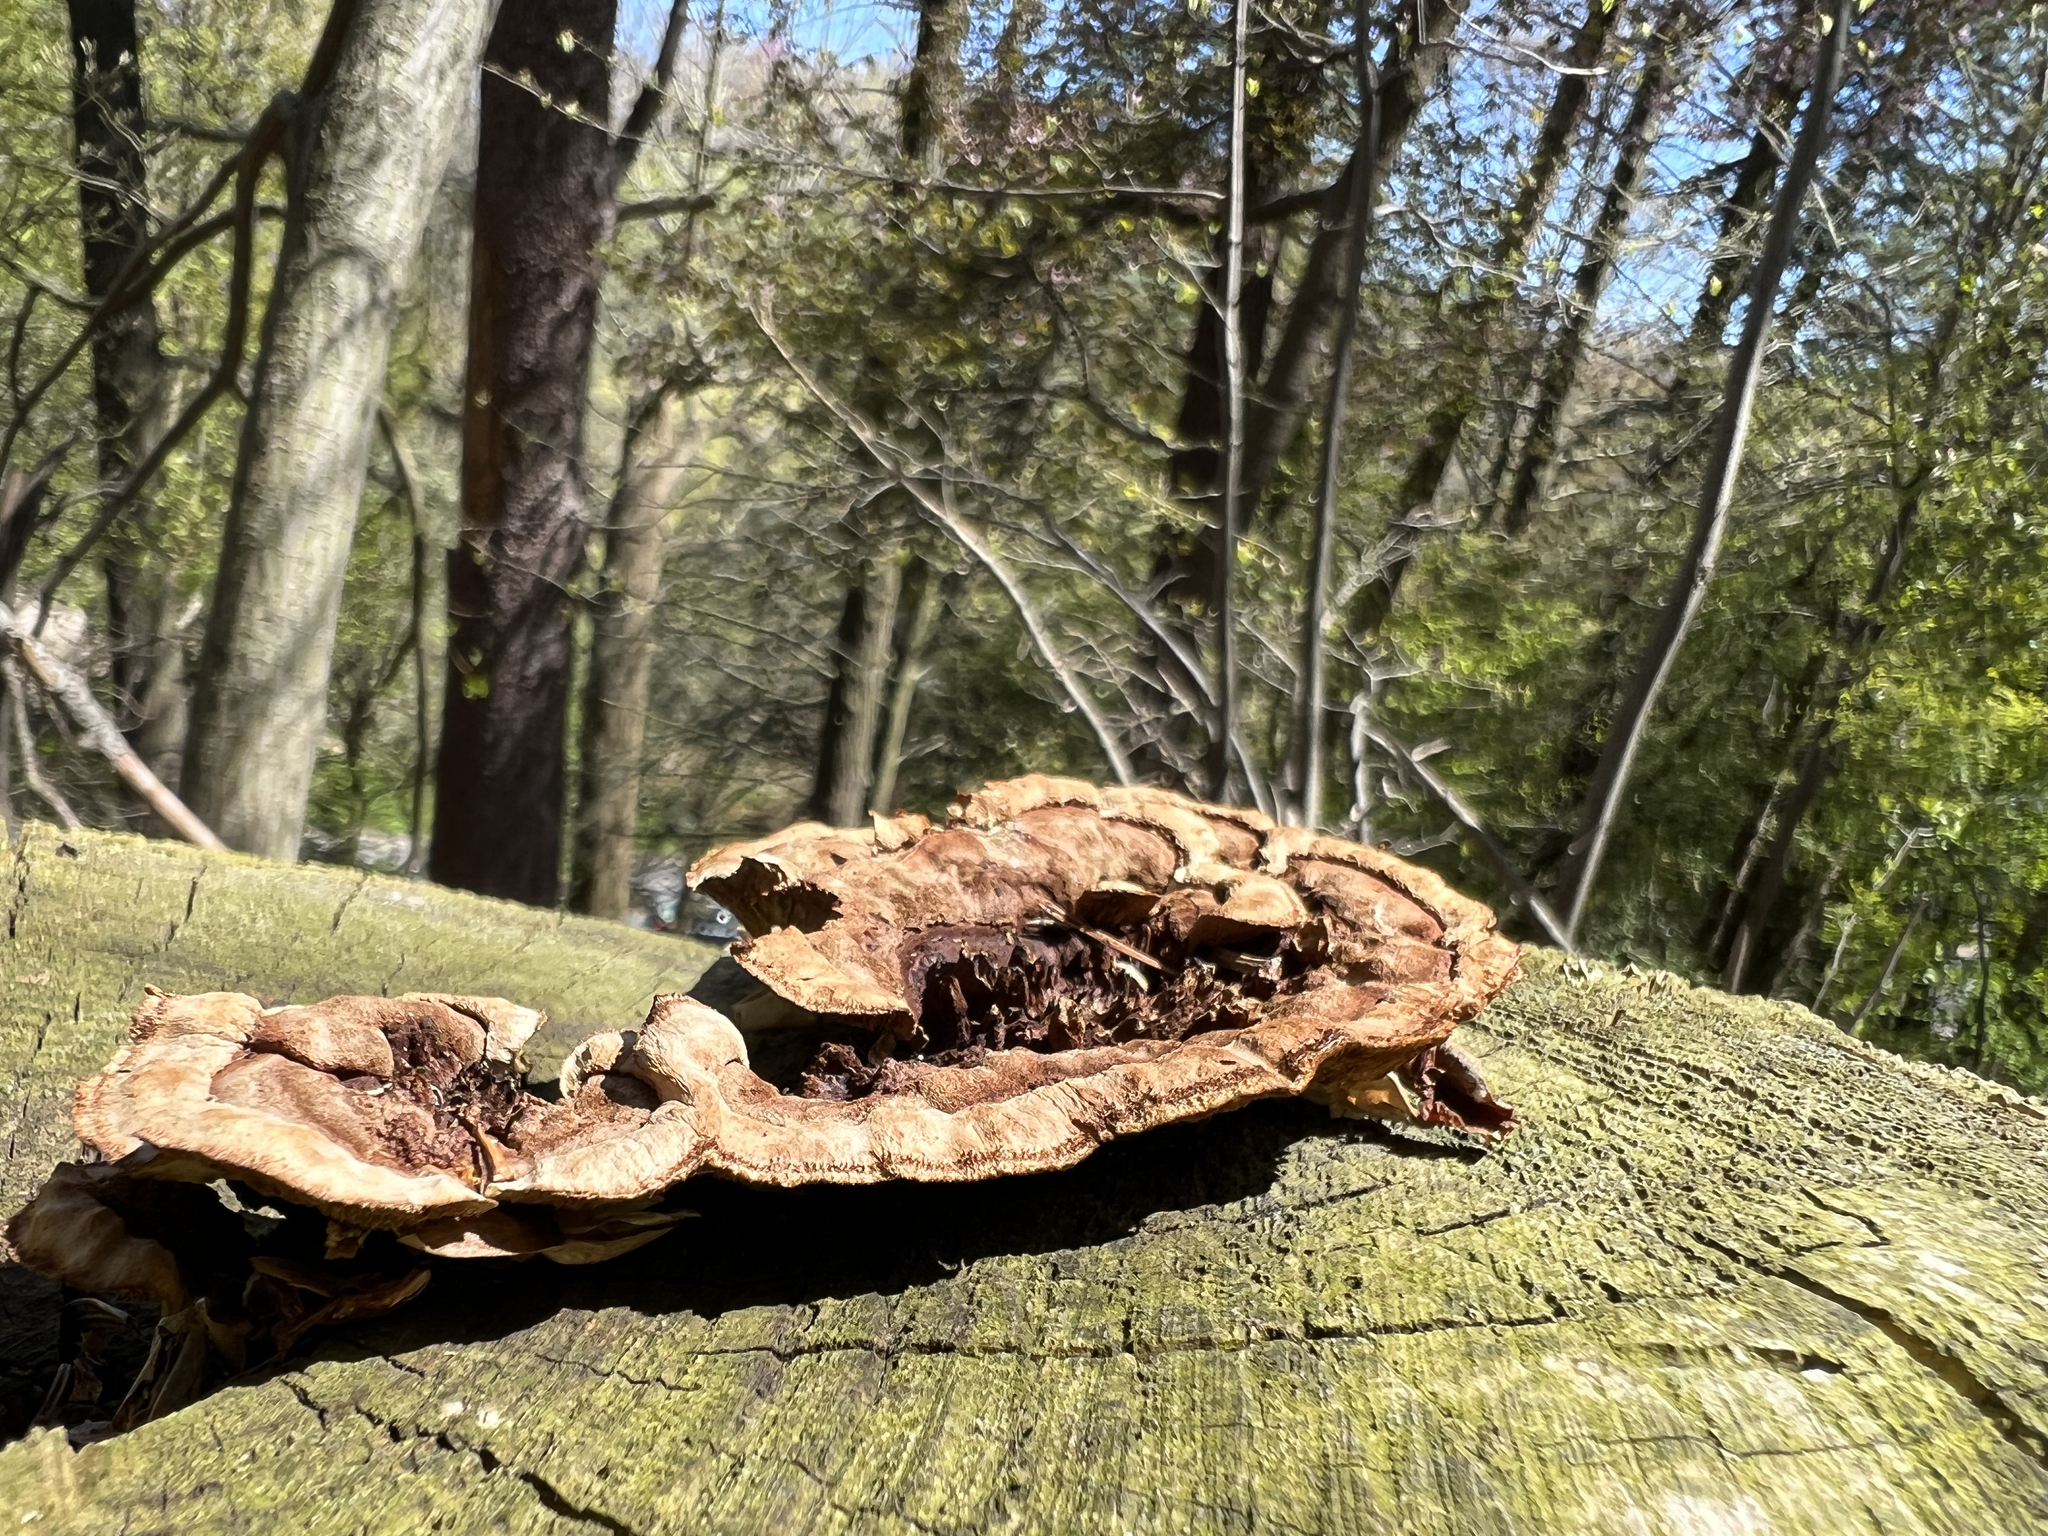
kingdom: Fungi
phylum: Basidiomycota
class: Agaricomycetes
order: Gloeophyllales
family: Gloeophyllaceae
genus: Gloeophyllum
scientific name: Gloeophyllum sepiarium
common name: Conifer mazegill
